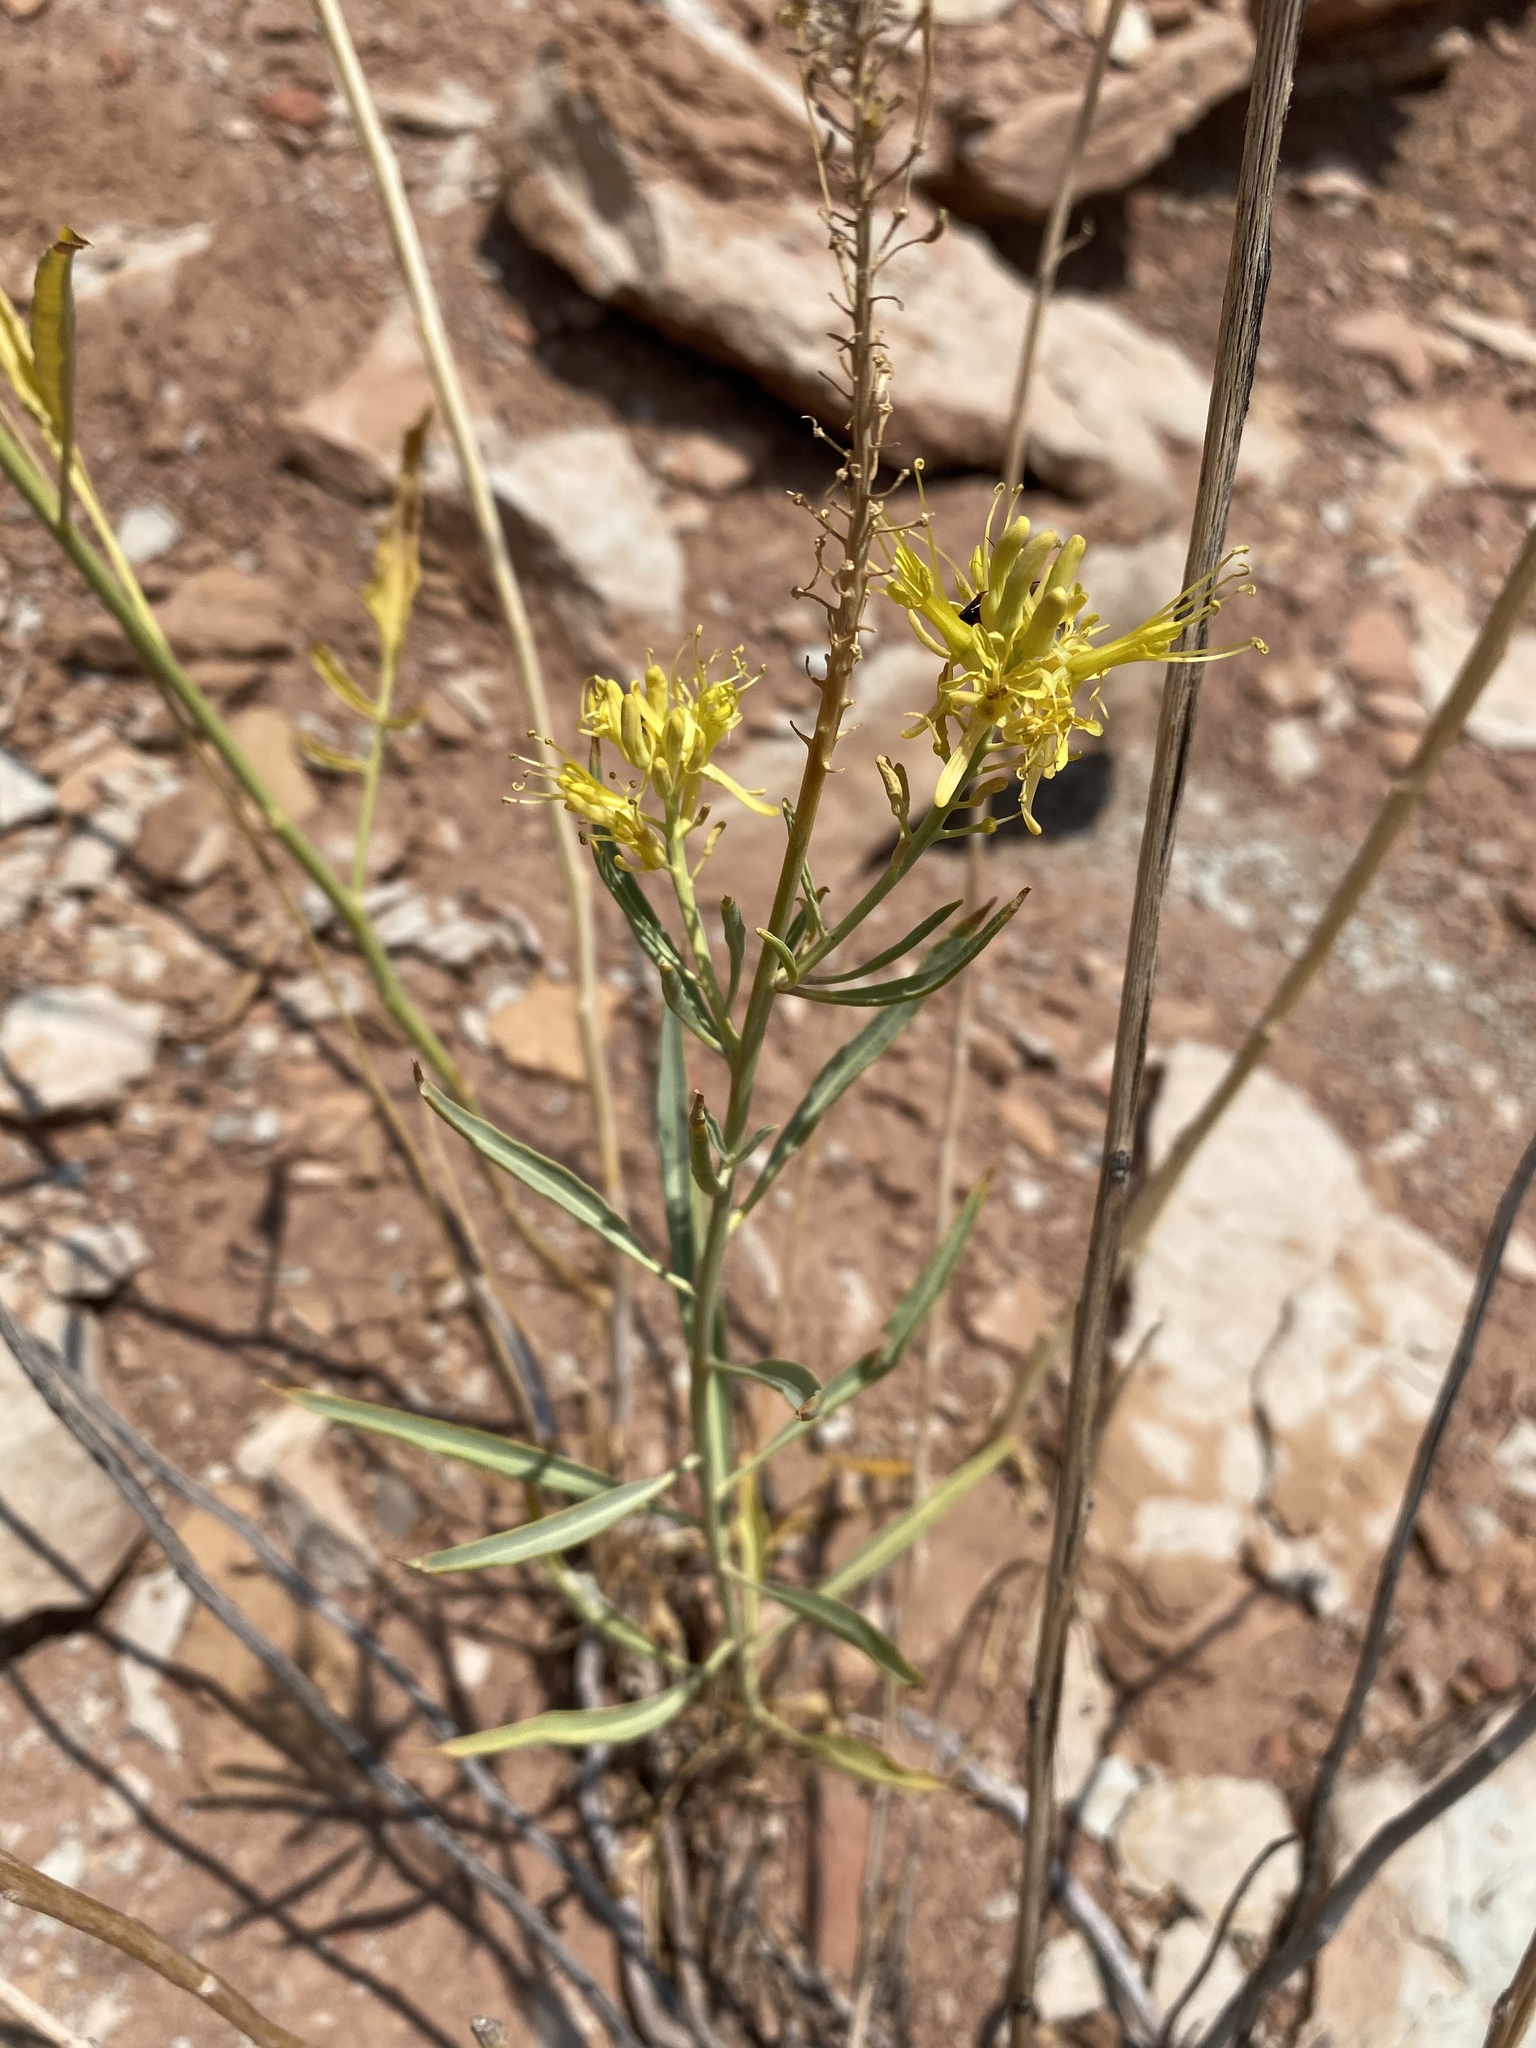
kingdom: Plantae
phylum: Tracheophyta
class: Magnoliopsida
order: Brassicales
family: Brassicaceae
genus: Stanleya
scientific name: Stanleya pinnata
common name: Prince's-plume
